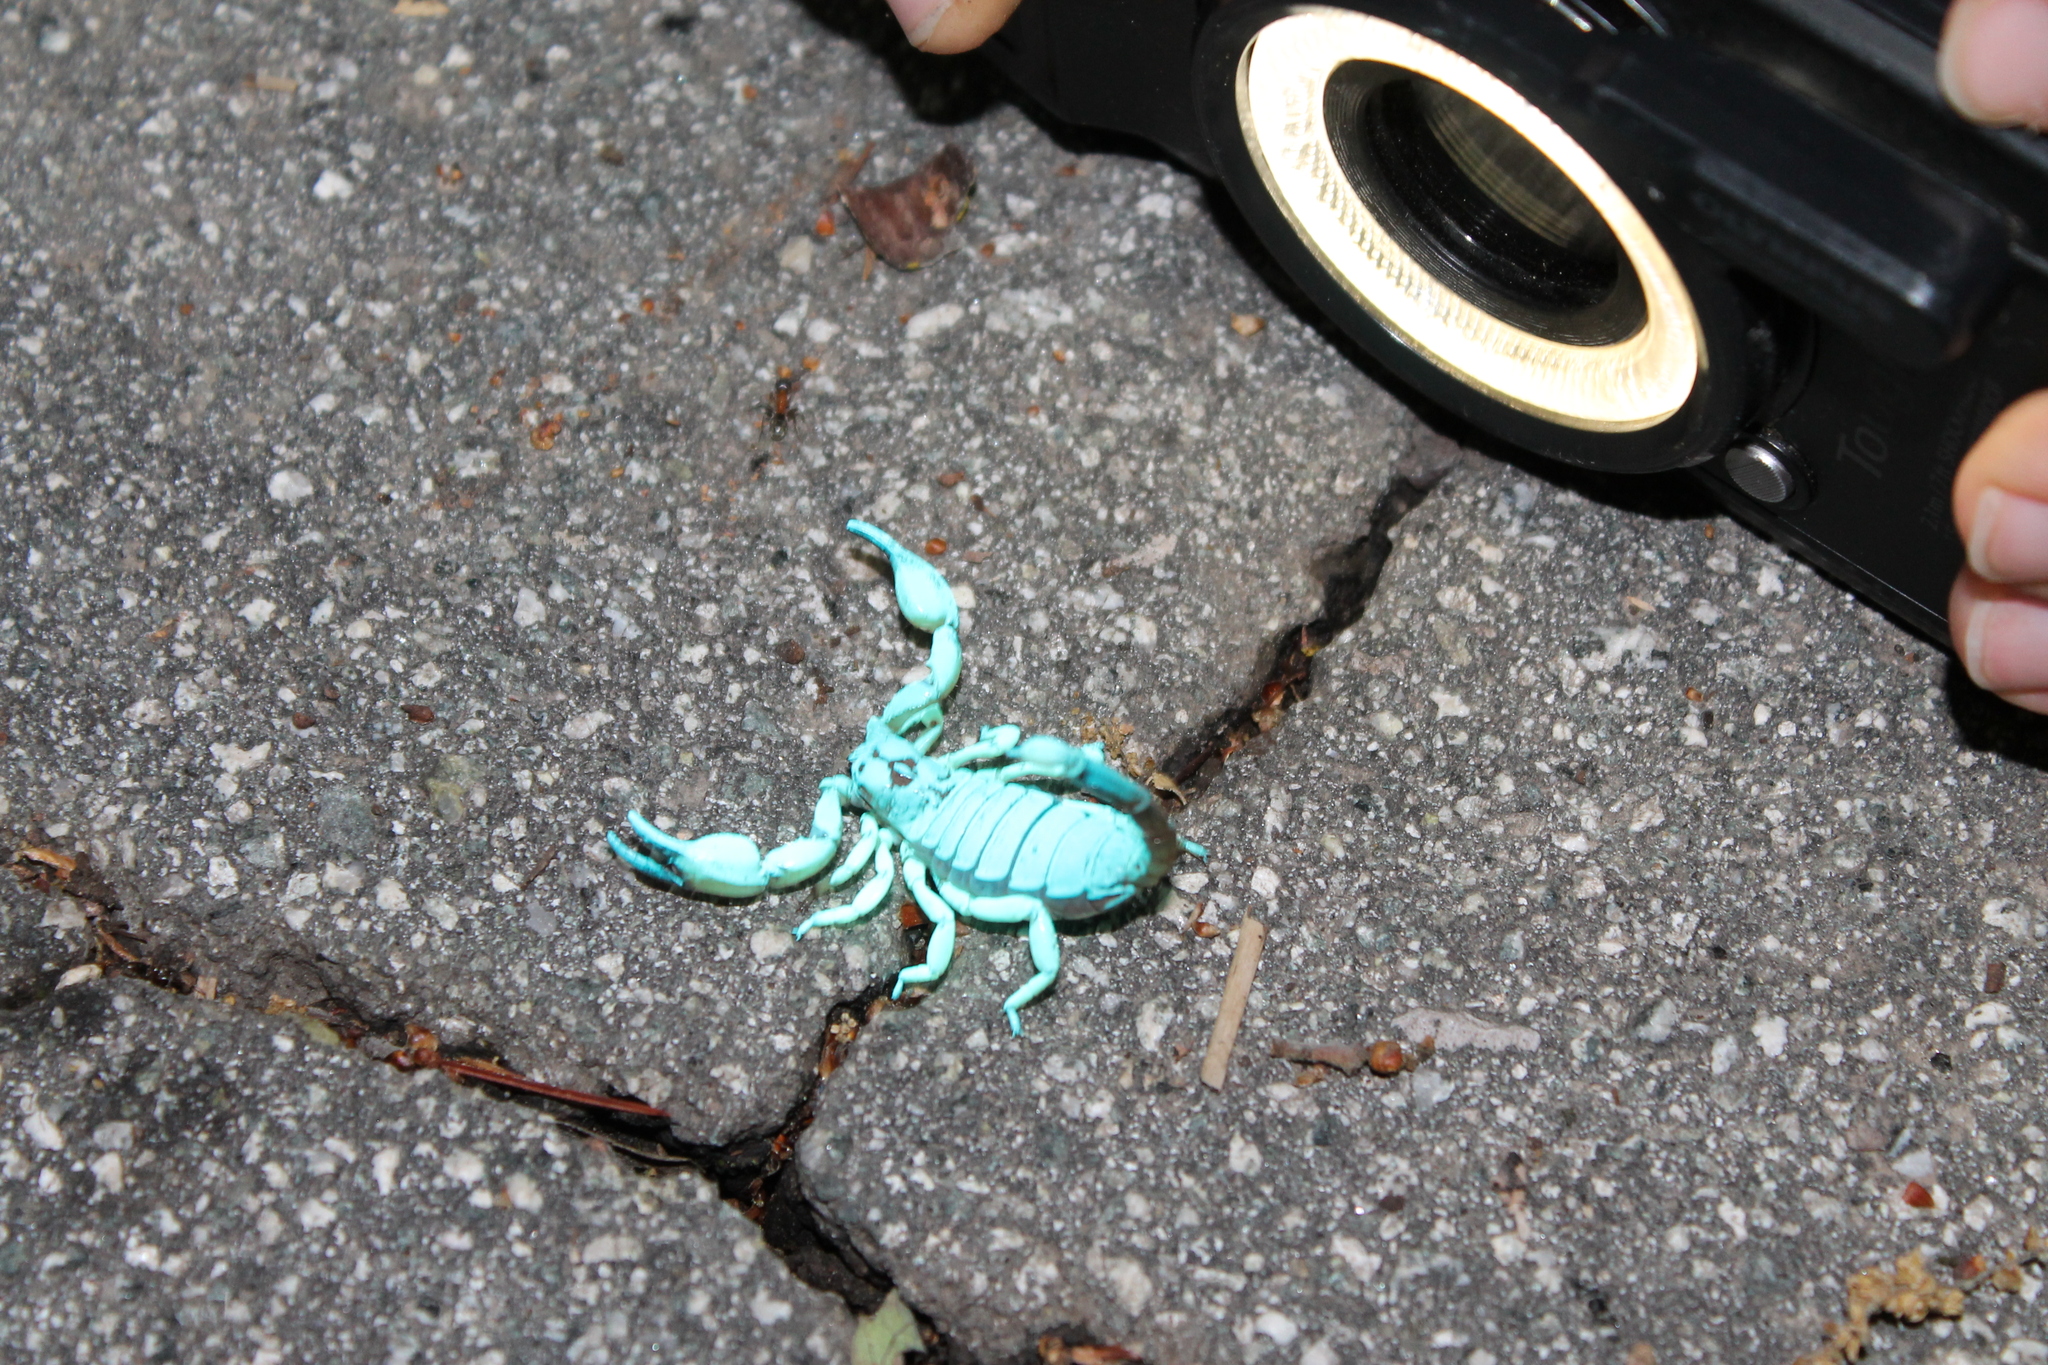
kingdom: Animalia
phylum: Arthropoda
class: Arachnida
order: Scorpiones
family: Chactidae
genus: Anuroctonus
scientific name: Anuroctonus pococki
